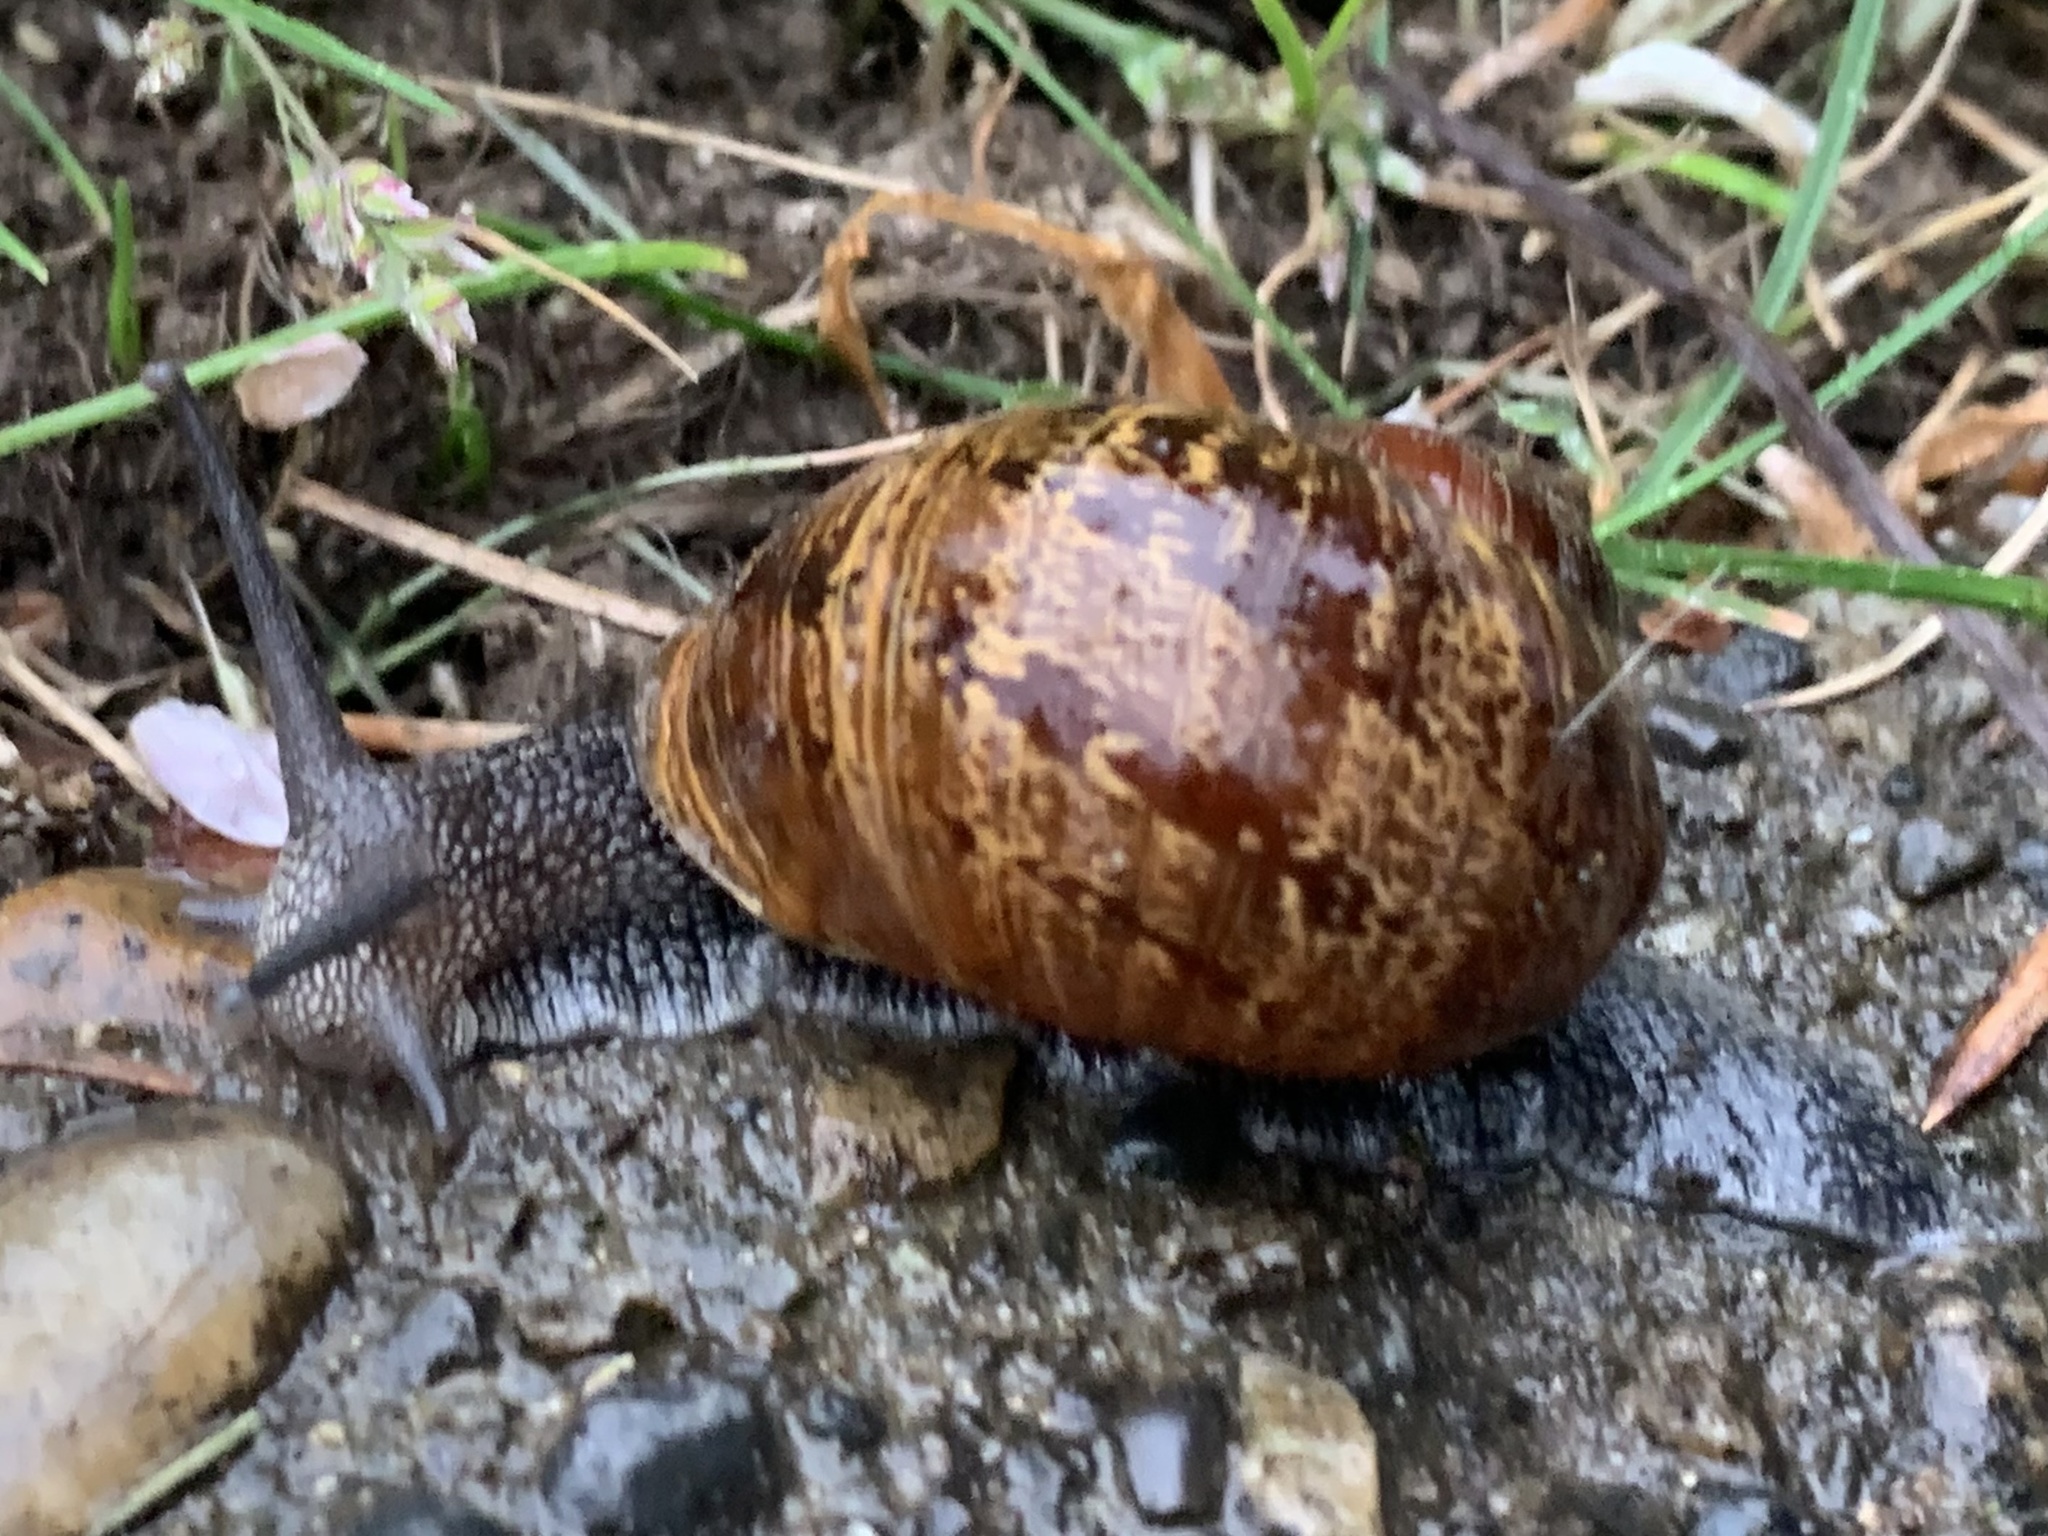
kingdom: Animalia
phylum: Mollusca
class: Gastropoda
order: Stylommatophora
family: Helicidae
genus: Cornu
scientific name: Cornu aspersum
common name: Brown garden snail
